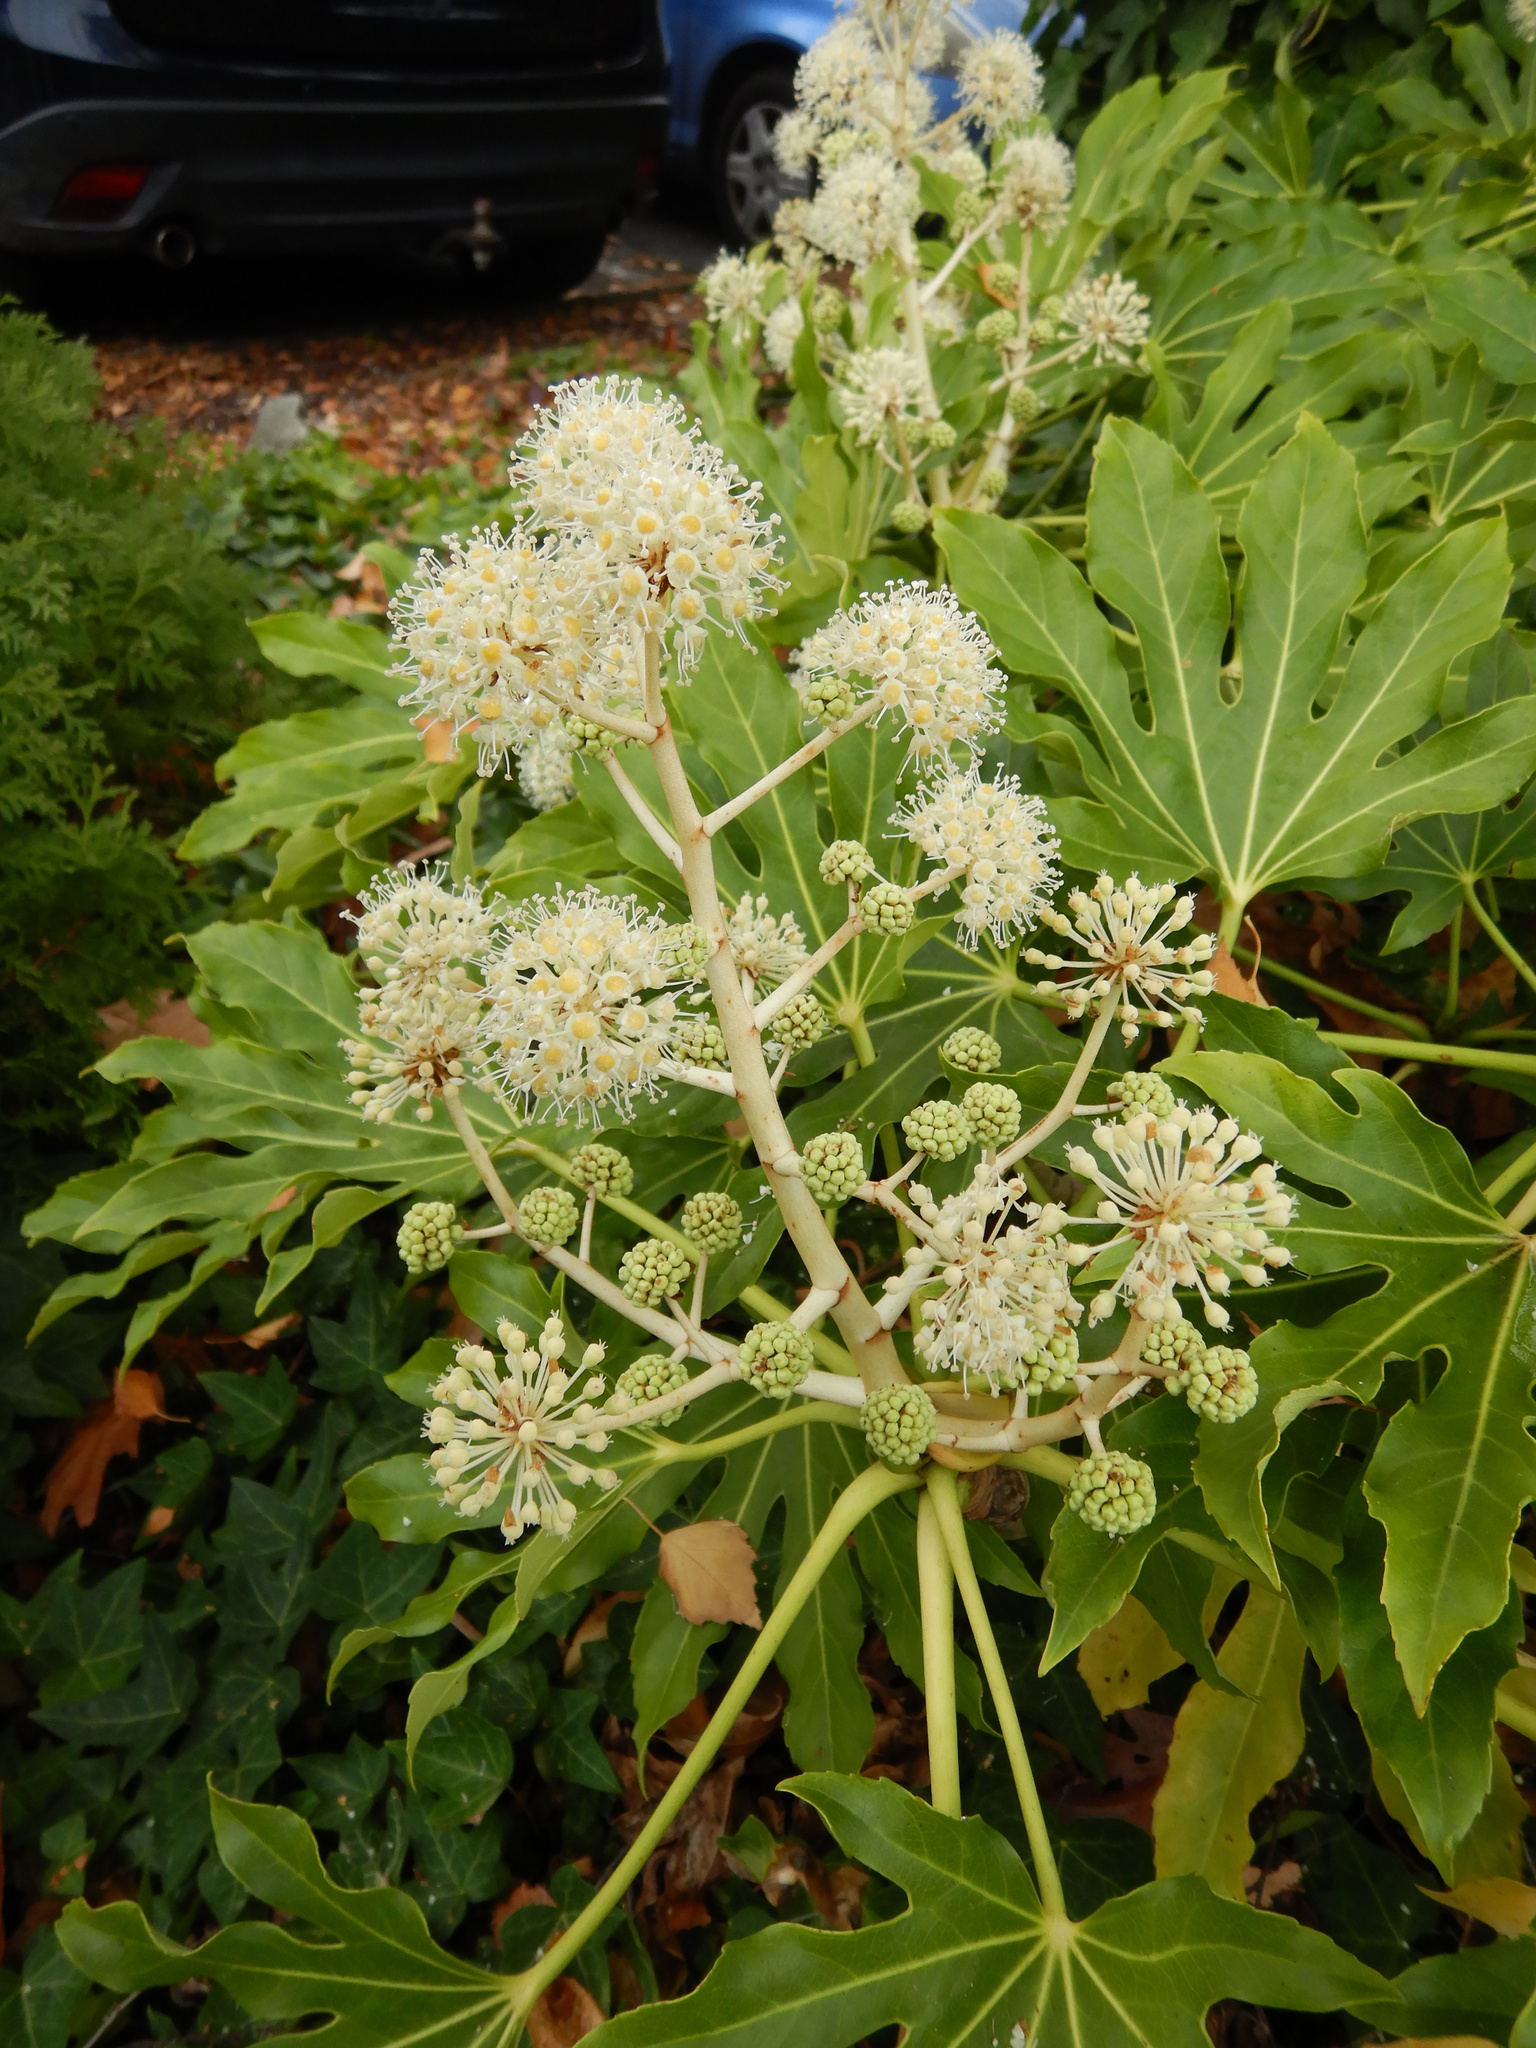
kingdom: Plantae
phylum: Tracheophyta
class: Magnoliopsida
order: Apiales
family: Araliaceae
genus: Fatsia
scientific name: Fatsia japonica
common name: Fatsia
